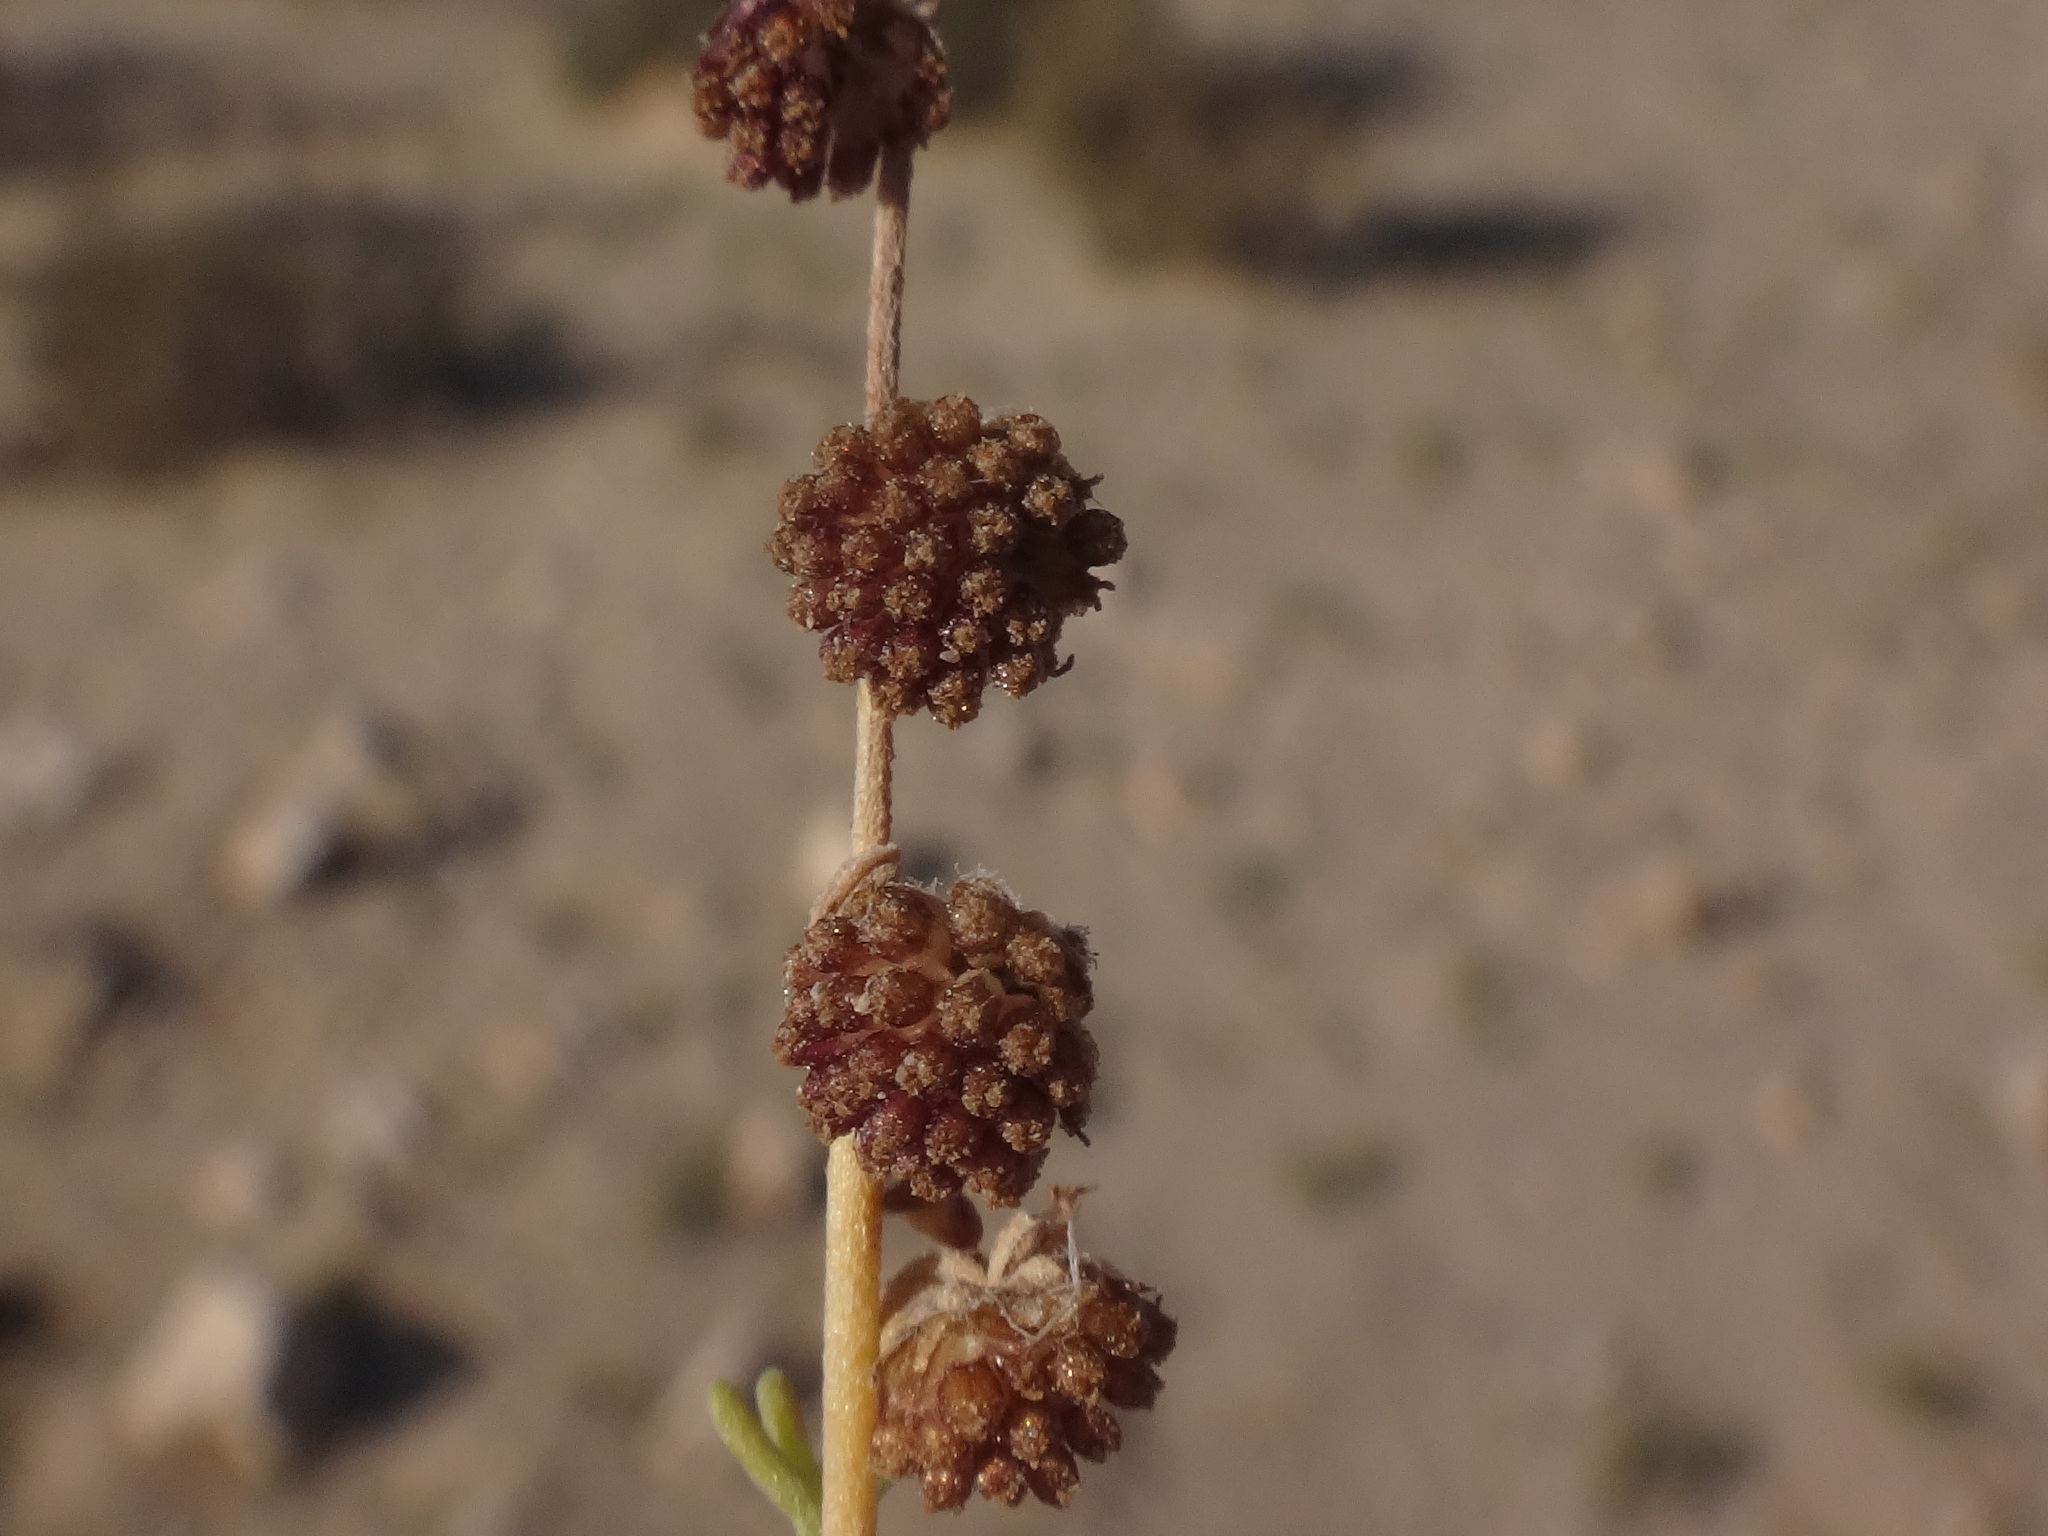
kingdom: Plantae
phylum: Tracheophyta
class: Magnoliopsida
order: Asterales
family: Asteraceae
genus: Artemisia
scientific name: Artemisia reptans
